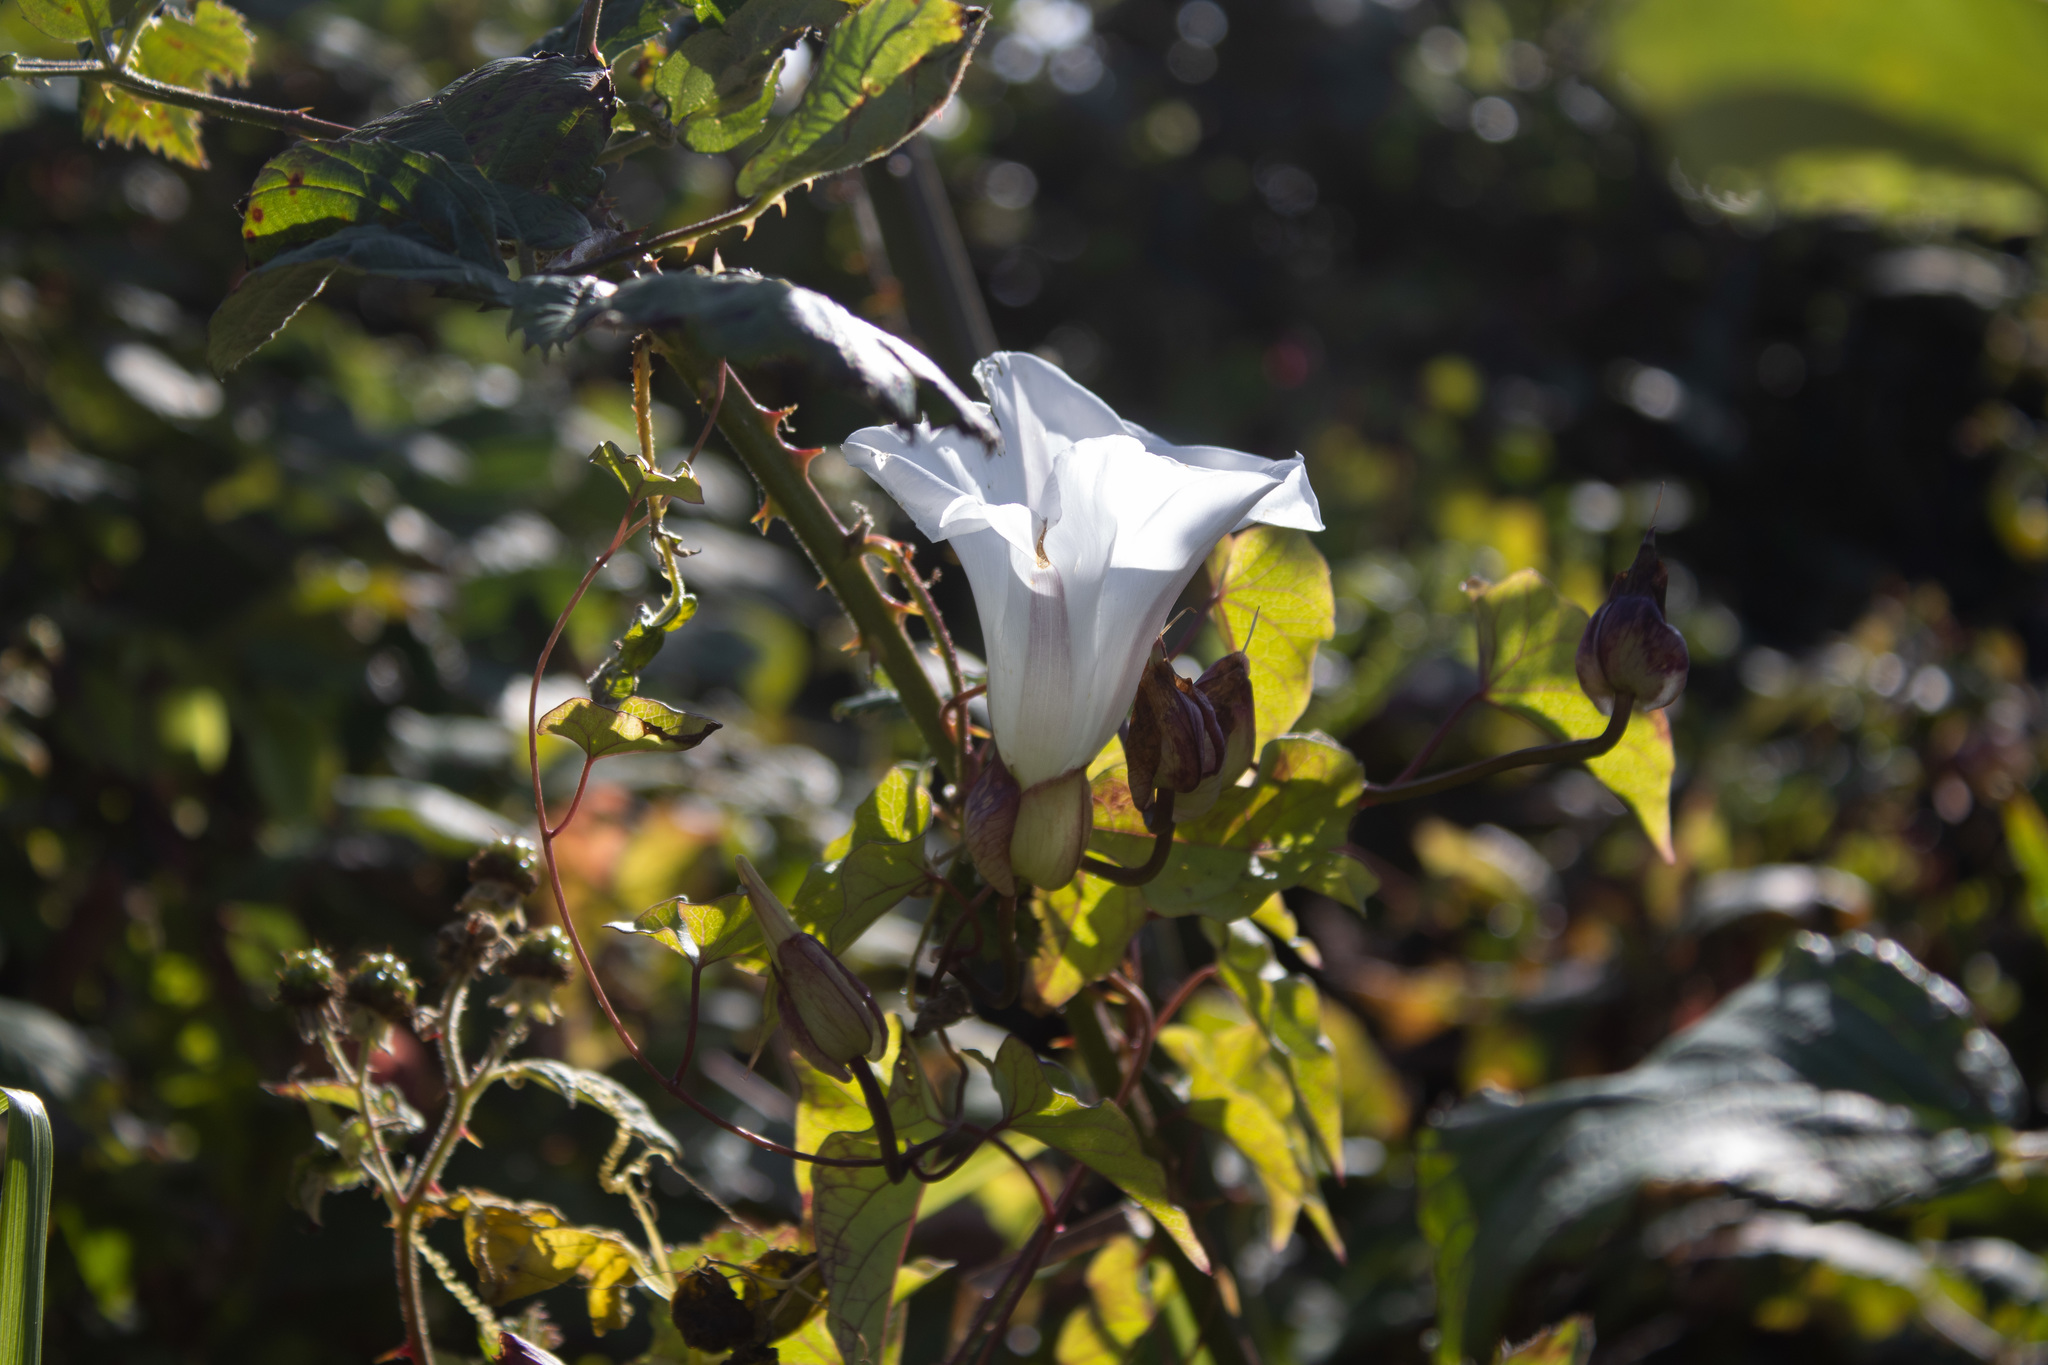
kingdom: Plantae
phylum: Tracheophyta
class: Magnoliopsida
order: Solanales
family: Convolvulaceae
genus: Calystegia
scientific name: Calystegia silvatica
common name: Large bindweed
